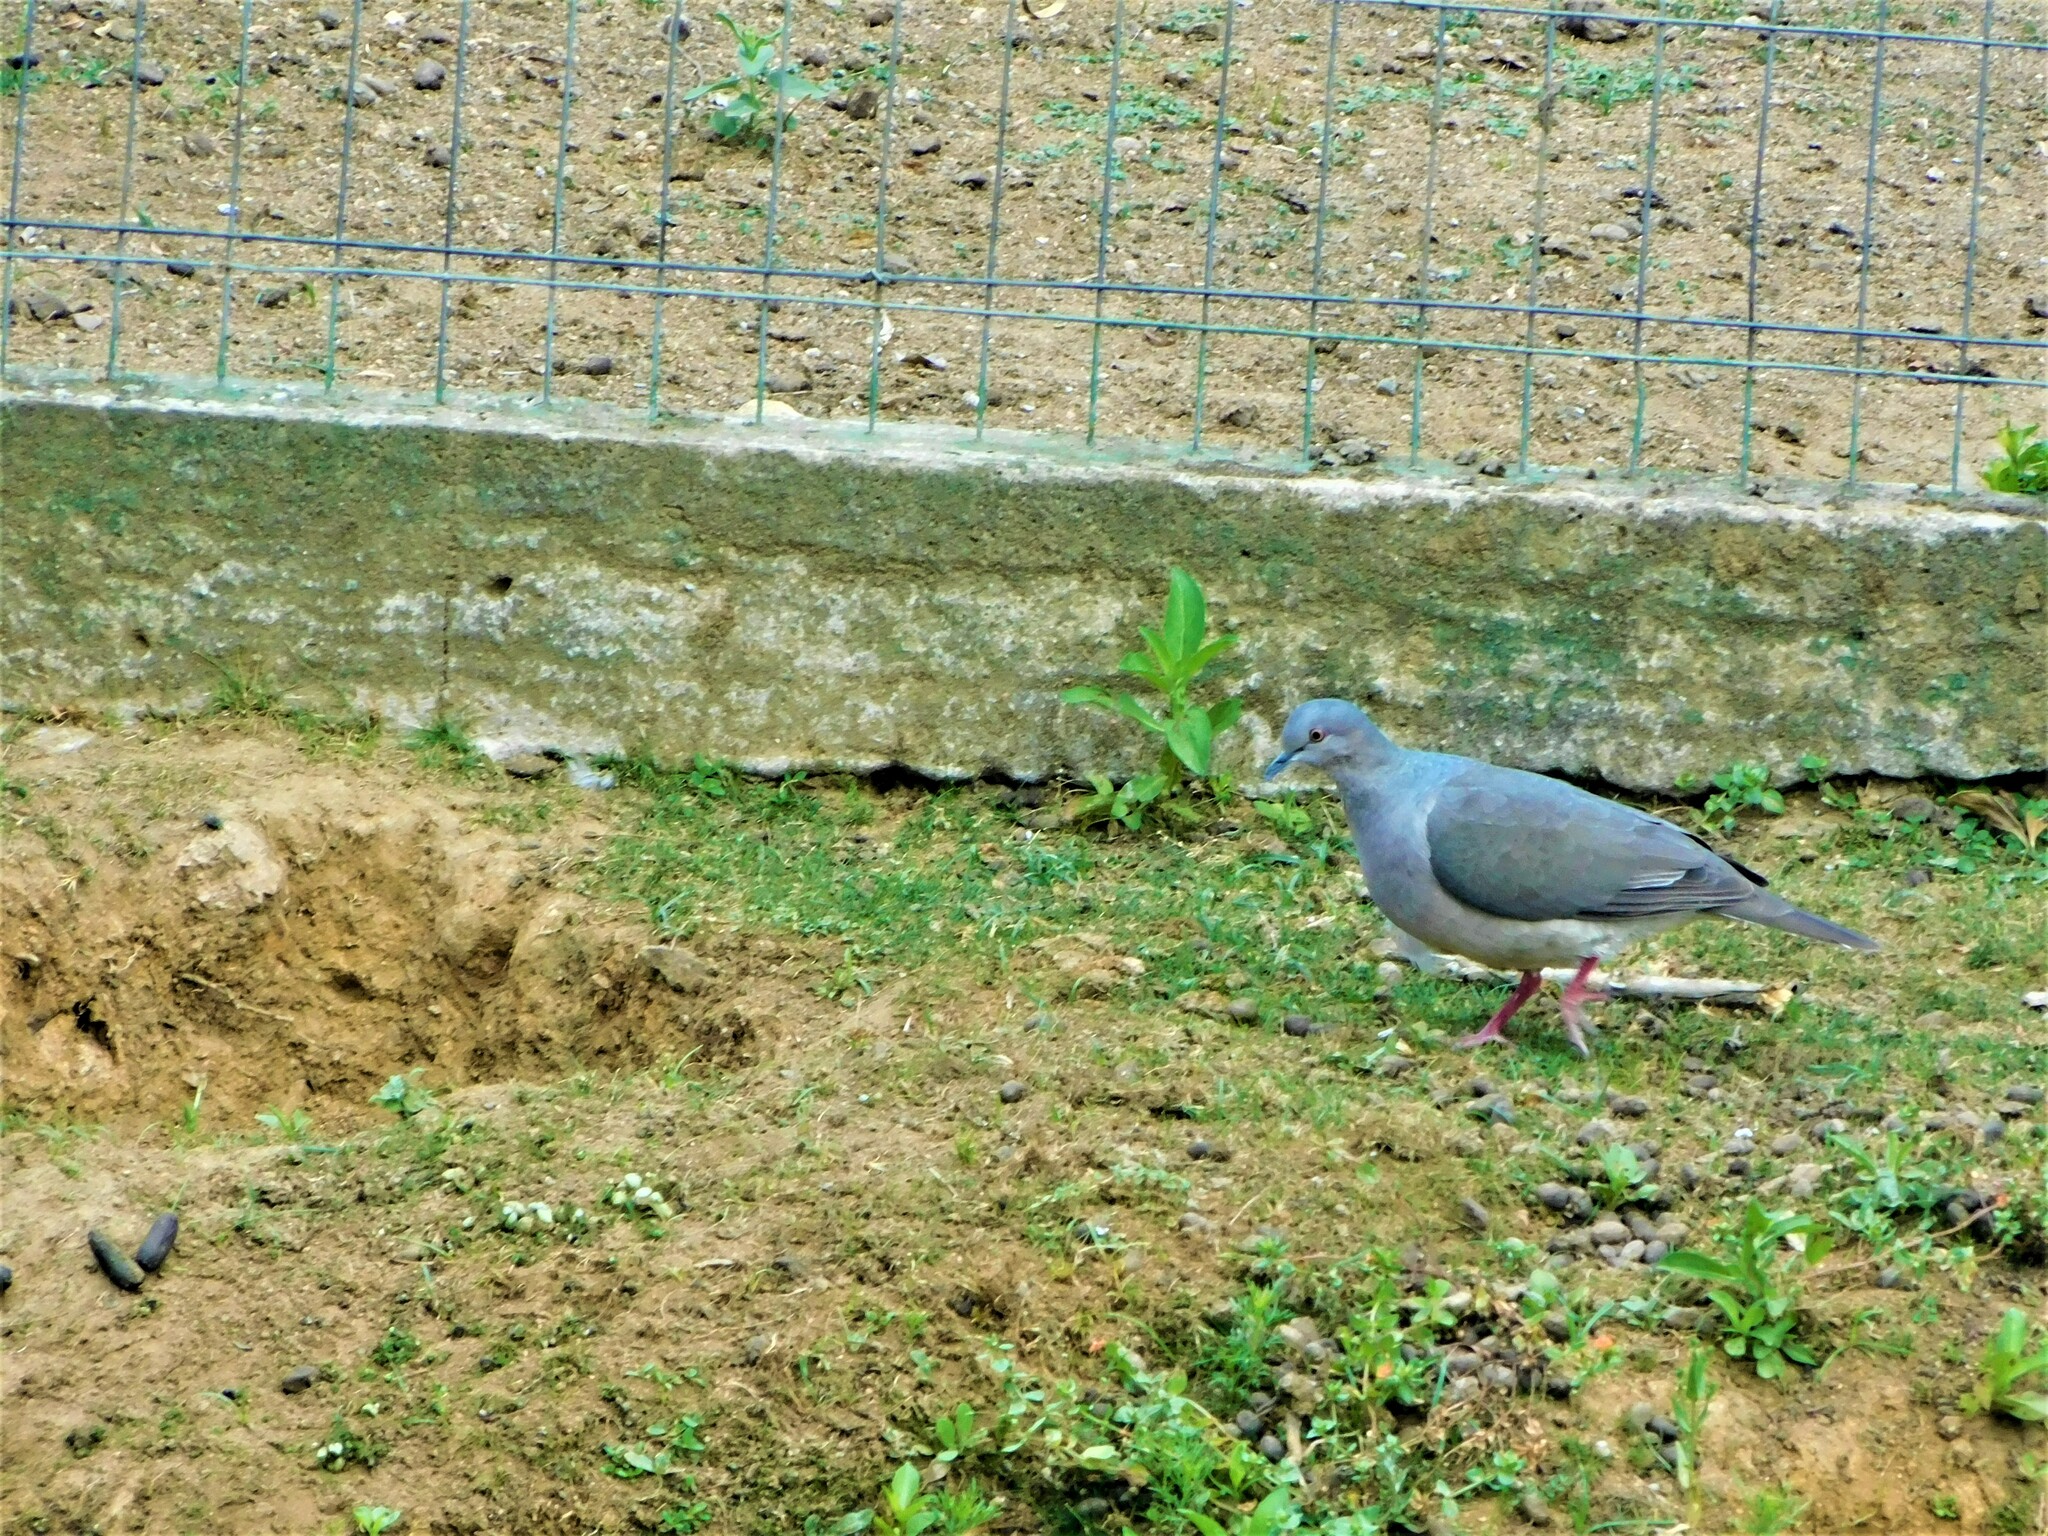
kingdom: Animalia
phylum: Chordata
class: Aves
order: Columbiformes
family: Columbidae
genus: Leptotila
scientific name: Leptotila verreauxi
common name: White-tipped dove
